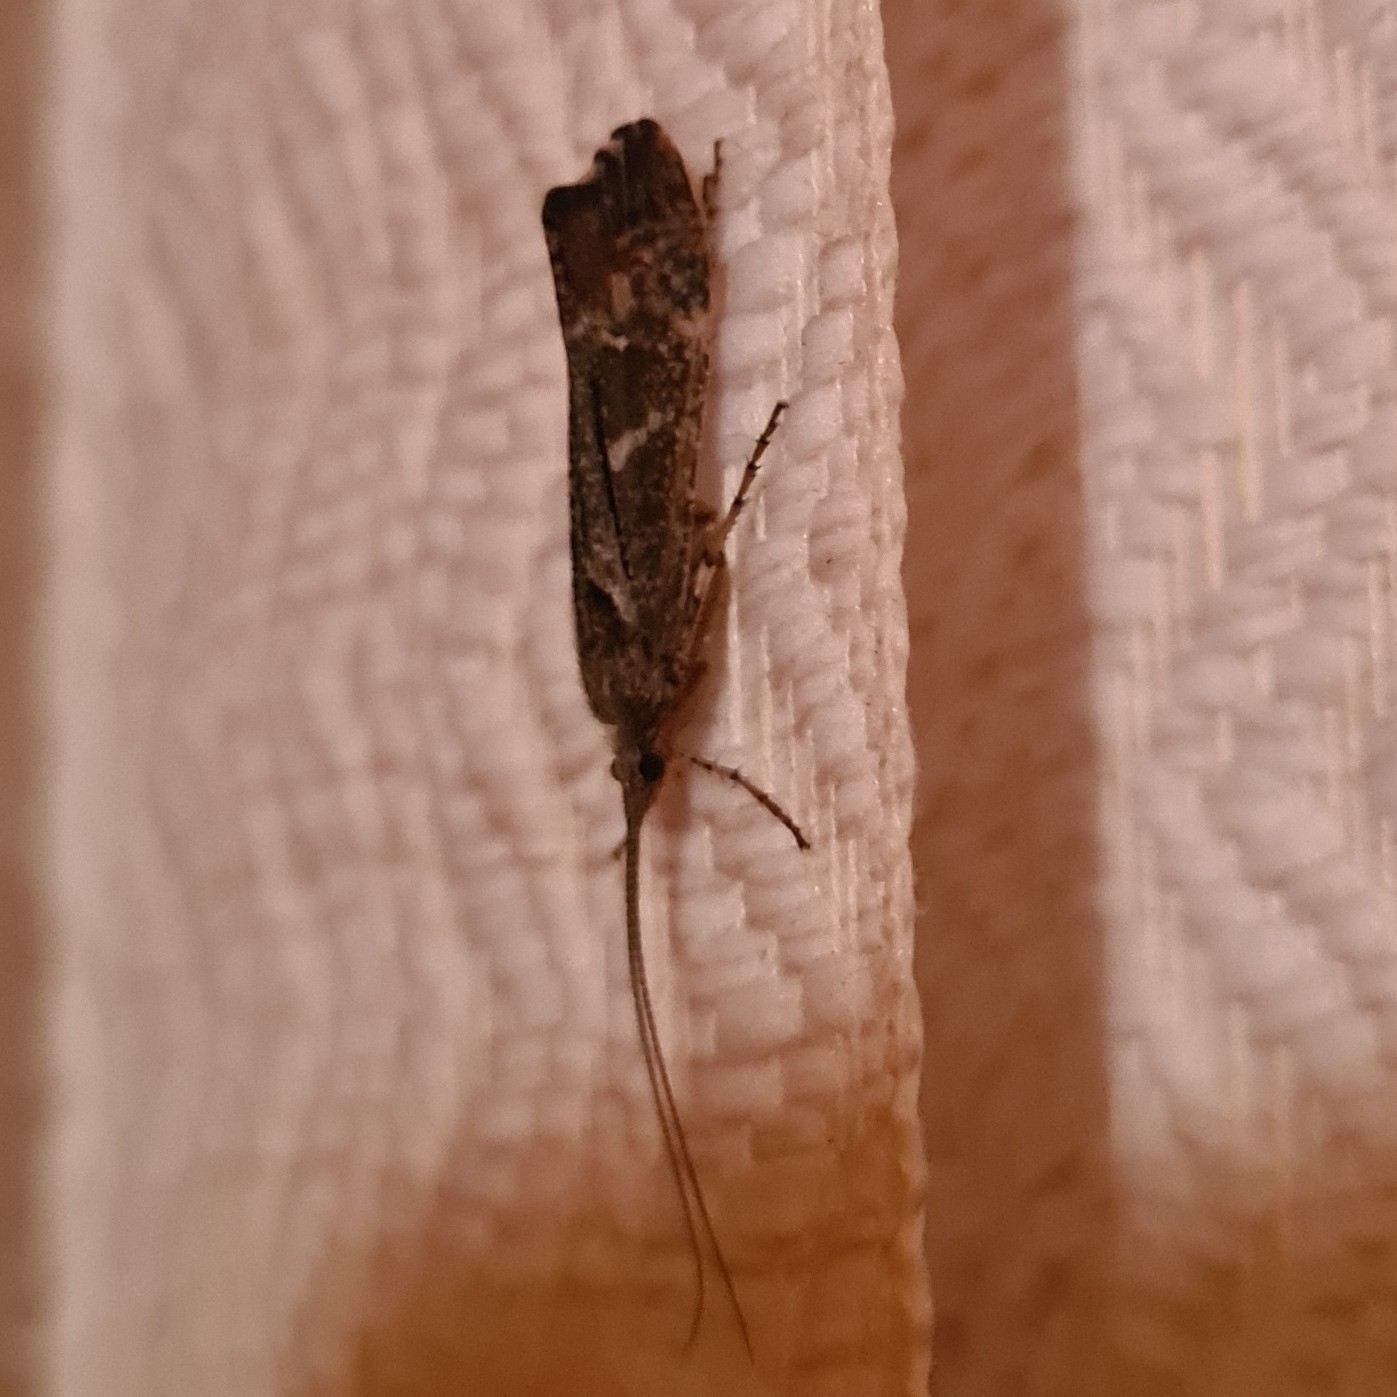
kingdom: Animalia
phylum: Arthropoda
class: Insecta
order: Trichoptera
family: Limnephilidae
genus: Glyphotaelius
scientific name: Glyphotaelius pellucidus
